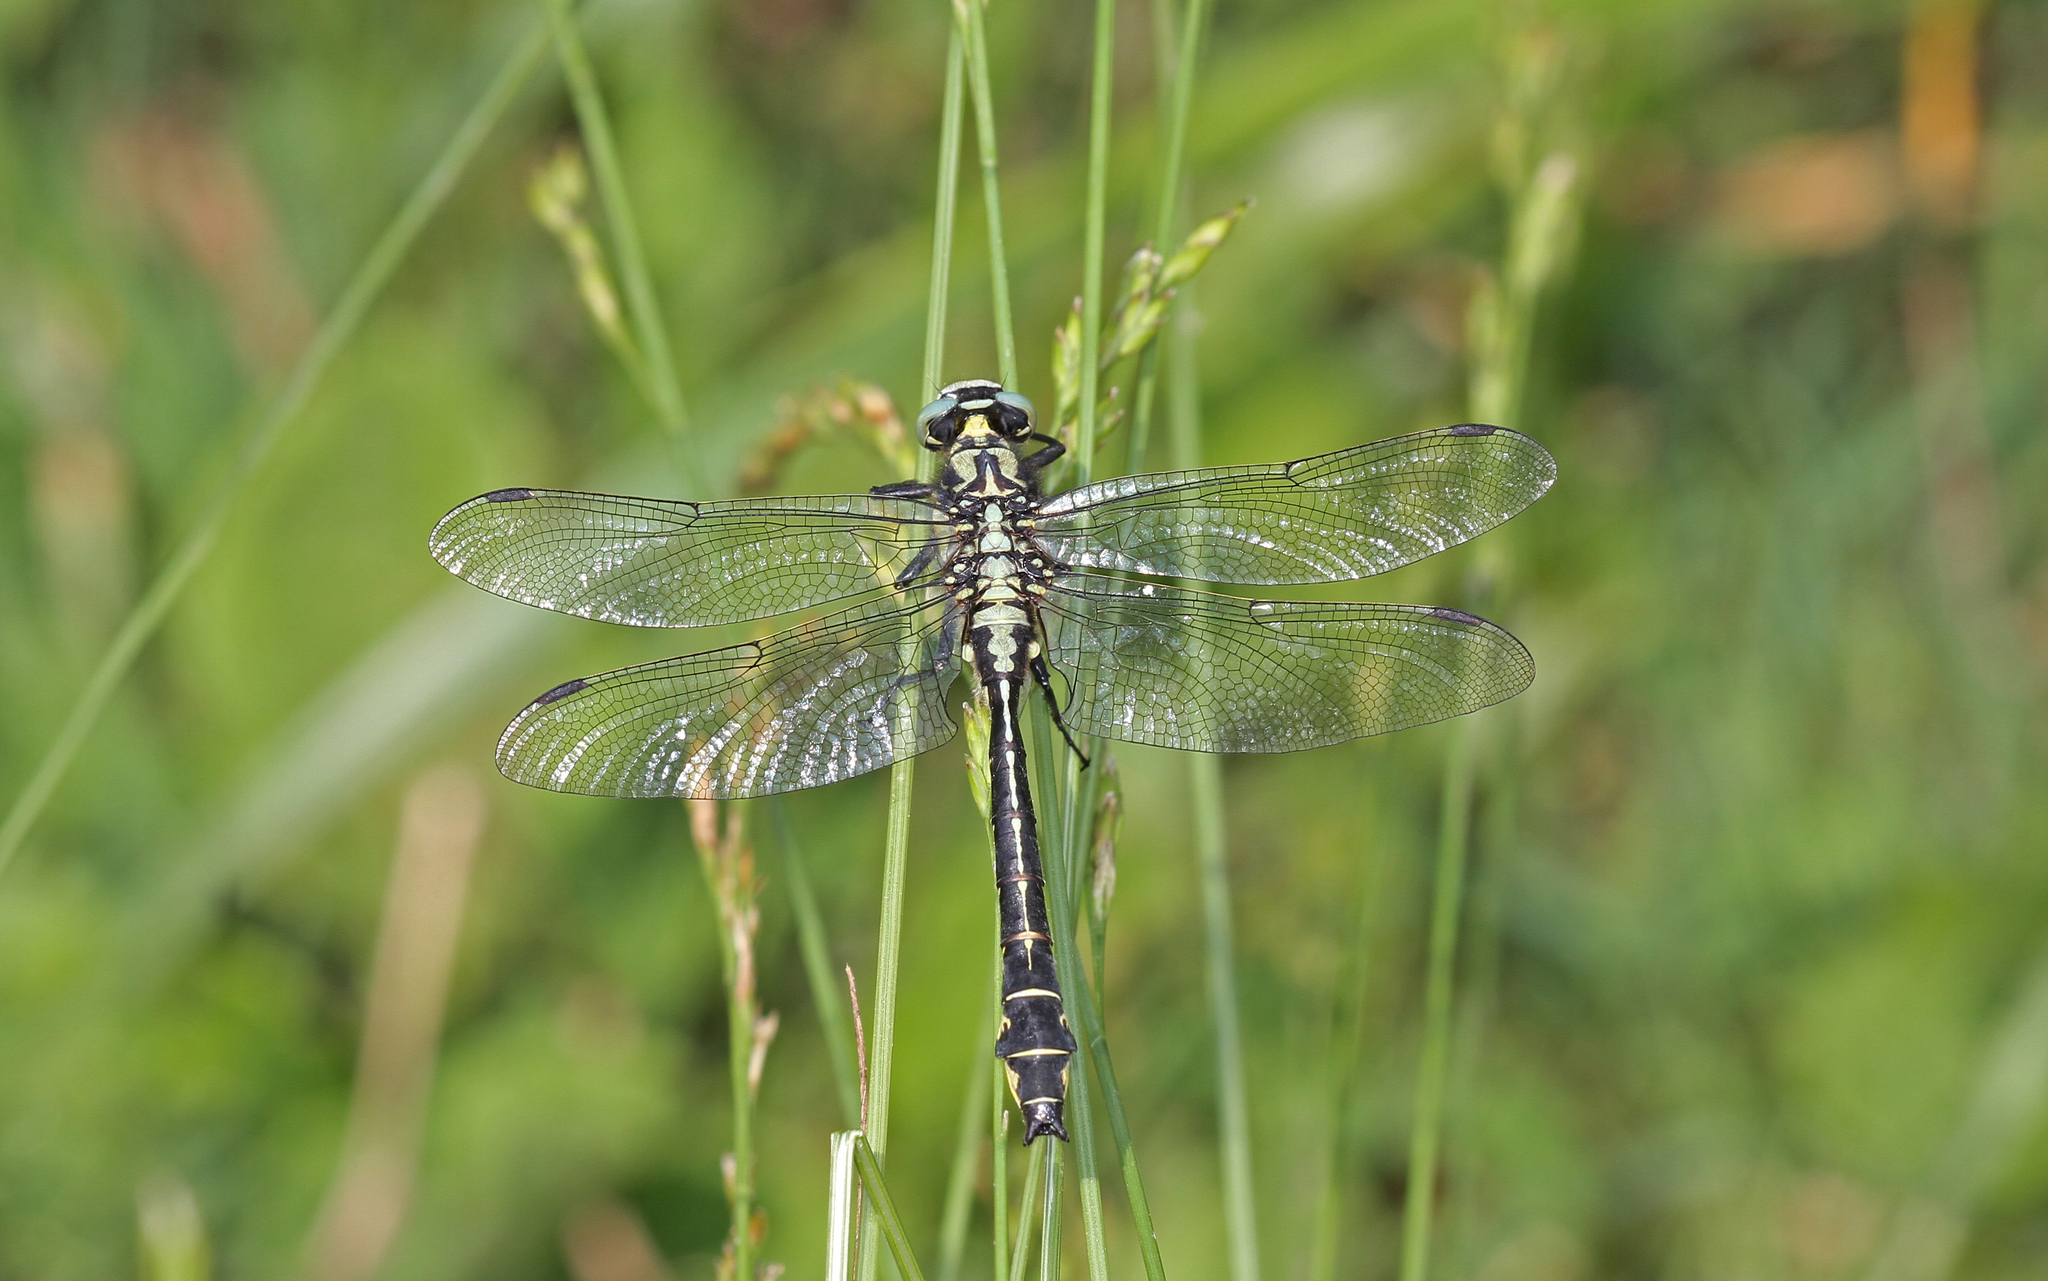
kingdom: Animalia
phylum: Arthropoda
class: Insecta
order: Odonata
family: Gomphidae
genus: Gomphus
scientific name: Gomphus vulgatissimus
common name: Club-tailed dragonfly
